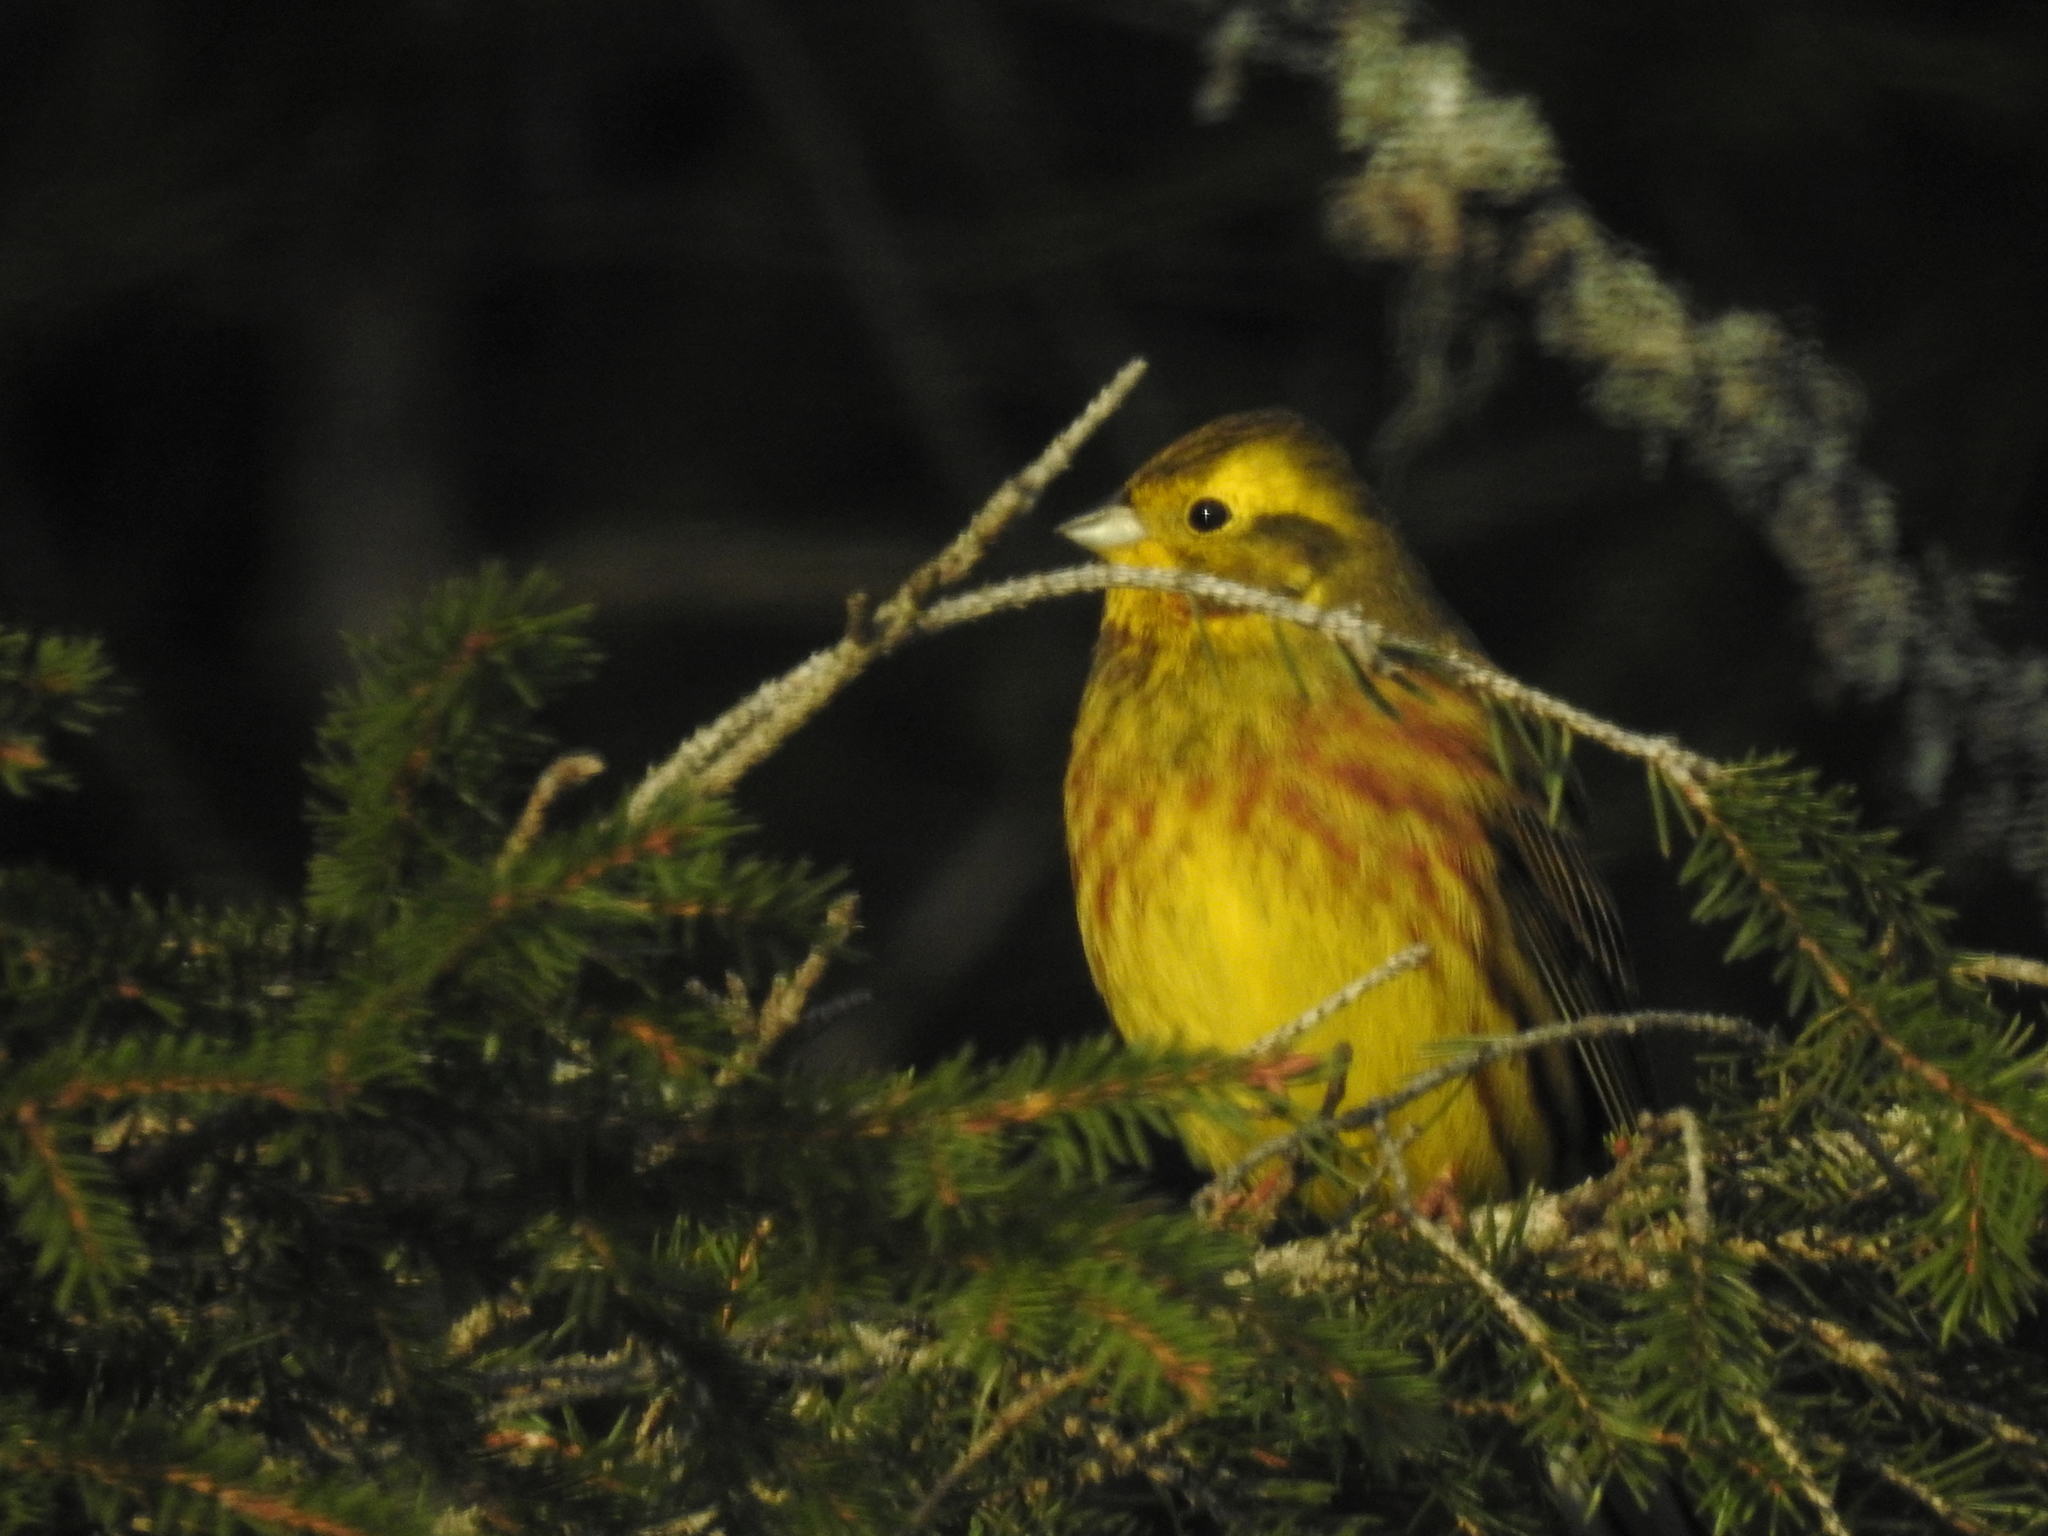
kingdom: Animalia
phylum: Chordata
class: Aves
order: Passeriformes
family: Emberizidae
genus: Emberiza
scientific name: Emberiza citrinella
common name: Yellowhammer
